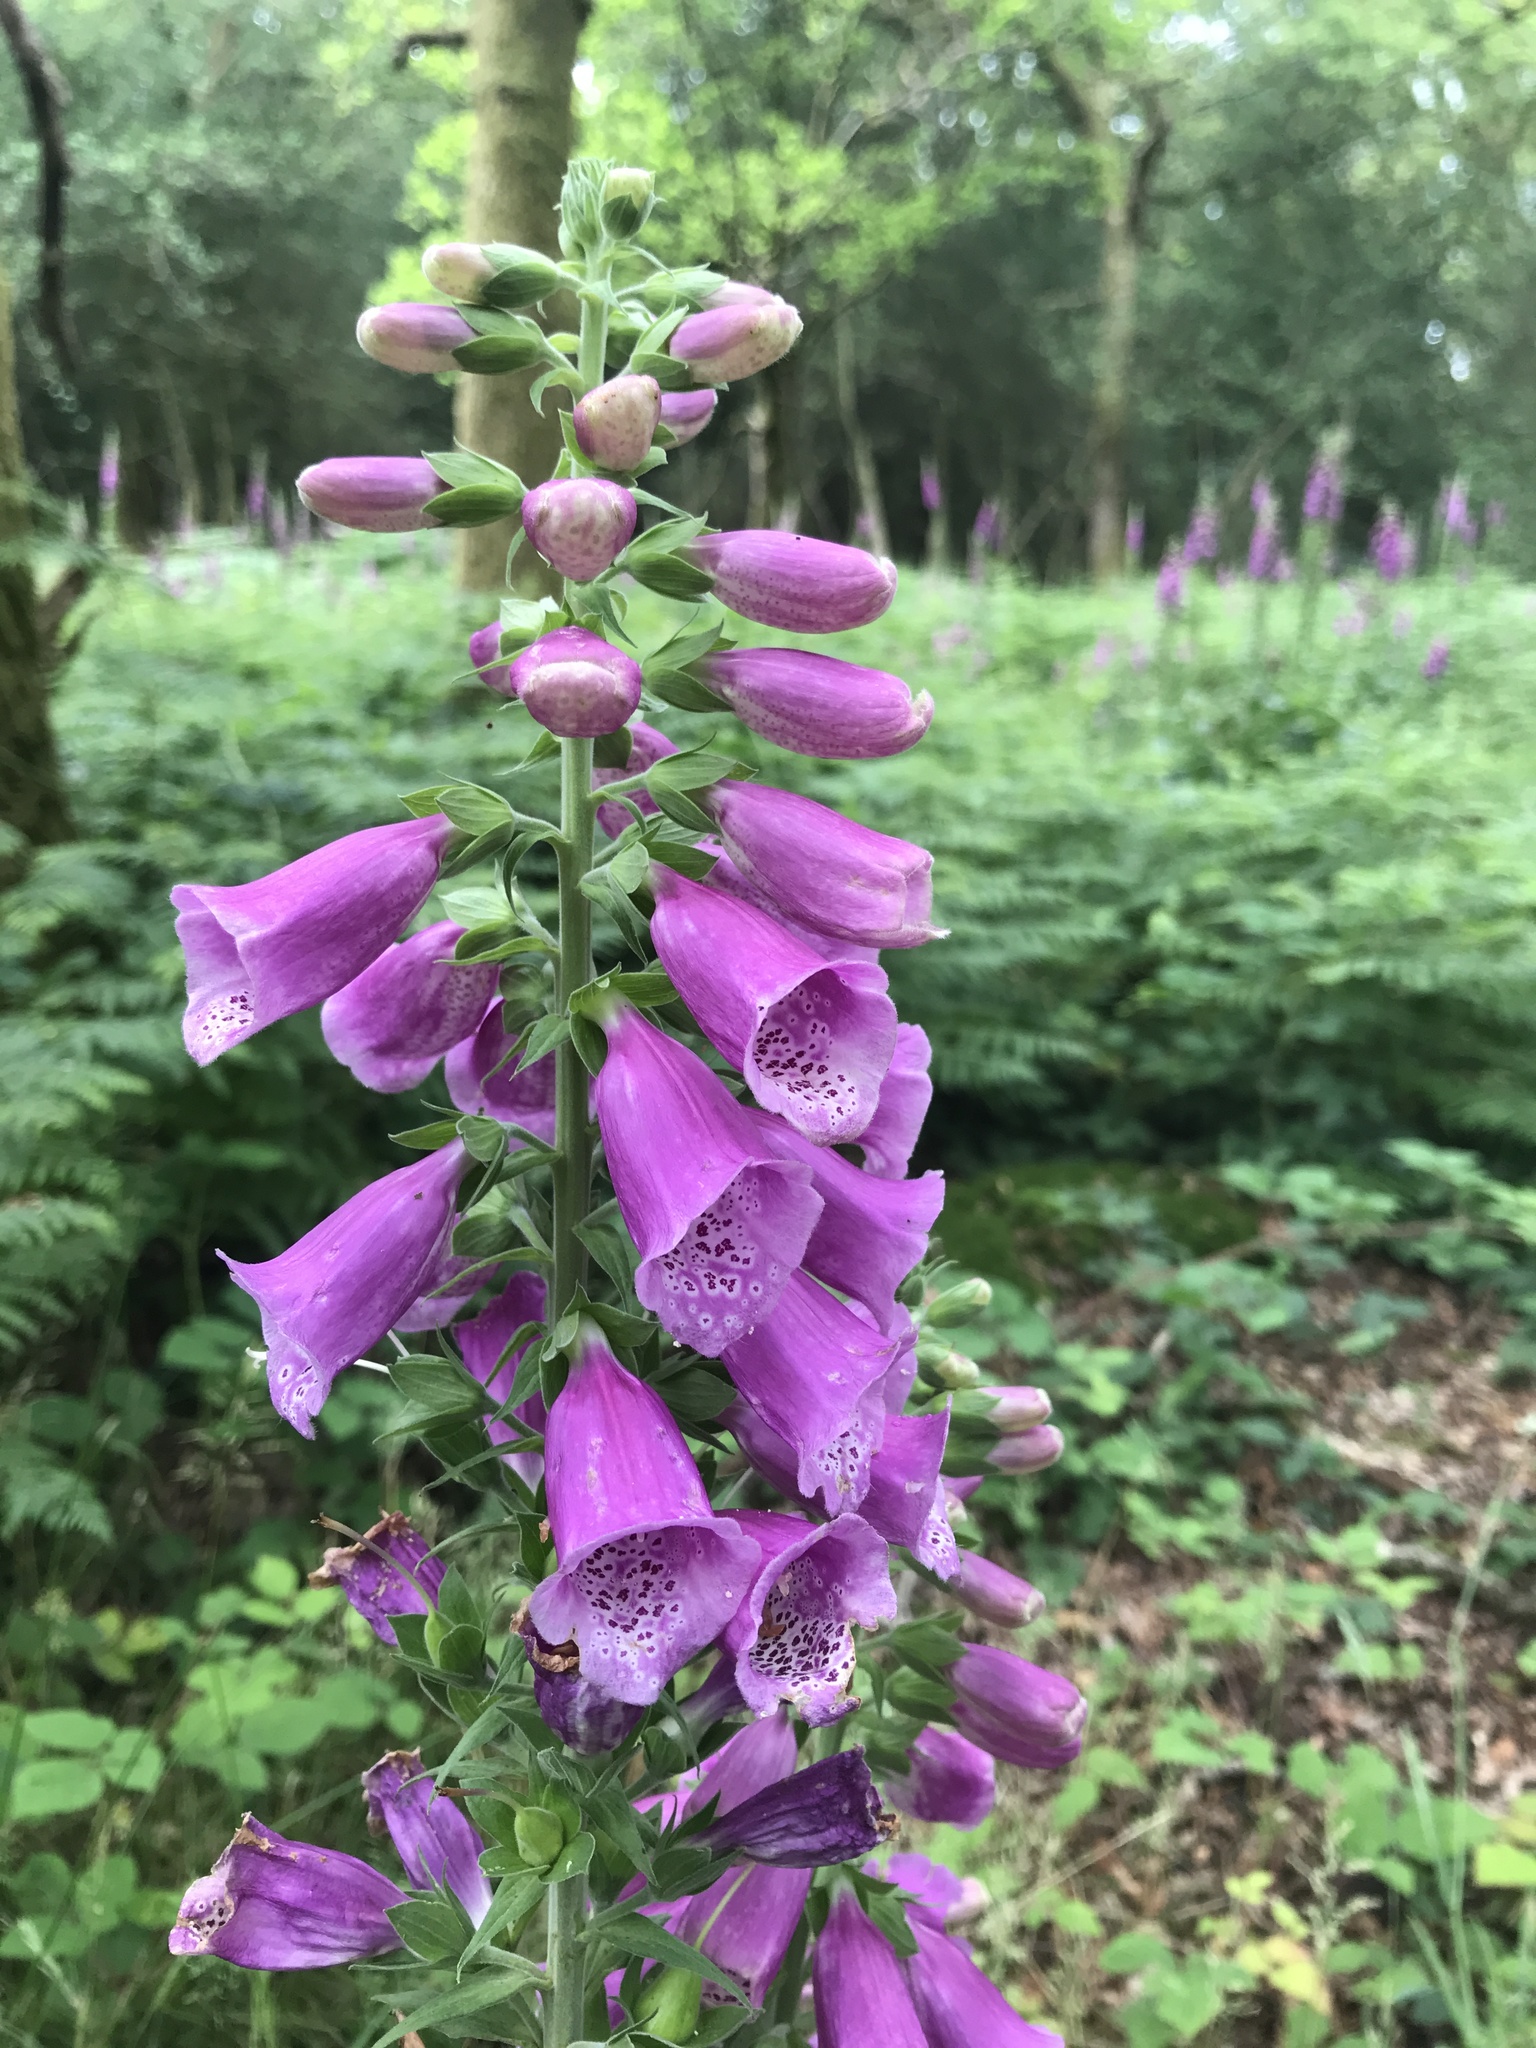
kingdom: Plantae
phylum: Tracheophyta
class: Magnoliopsida
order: Lamiales
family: Plantaginaceae
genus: Digitalis
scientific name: Digitalis purpurea
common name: Foxglove
